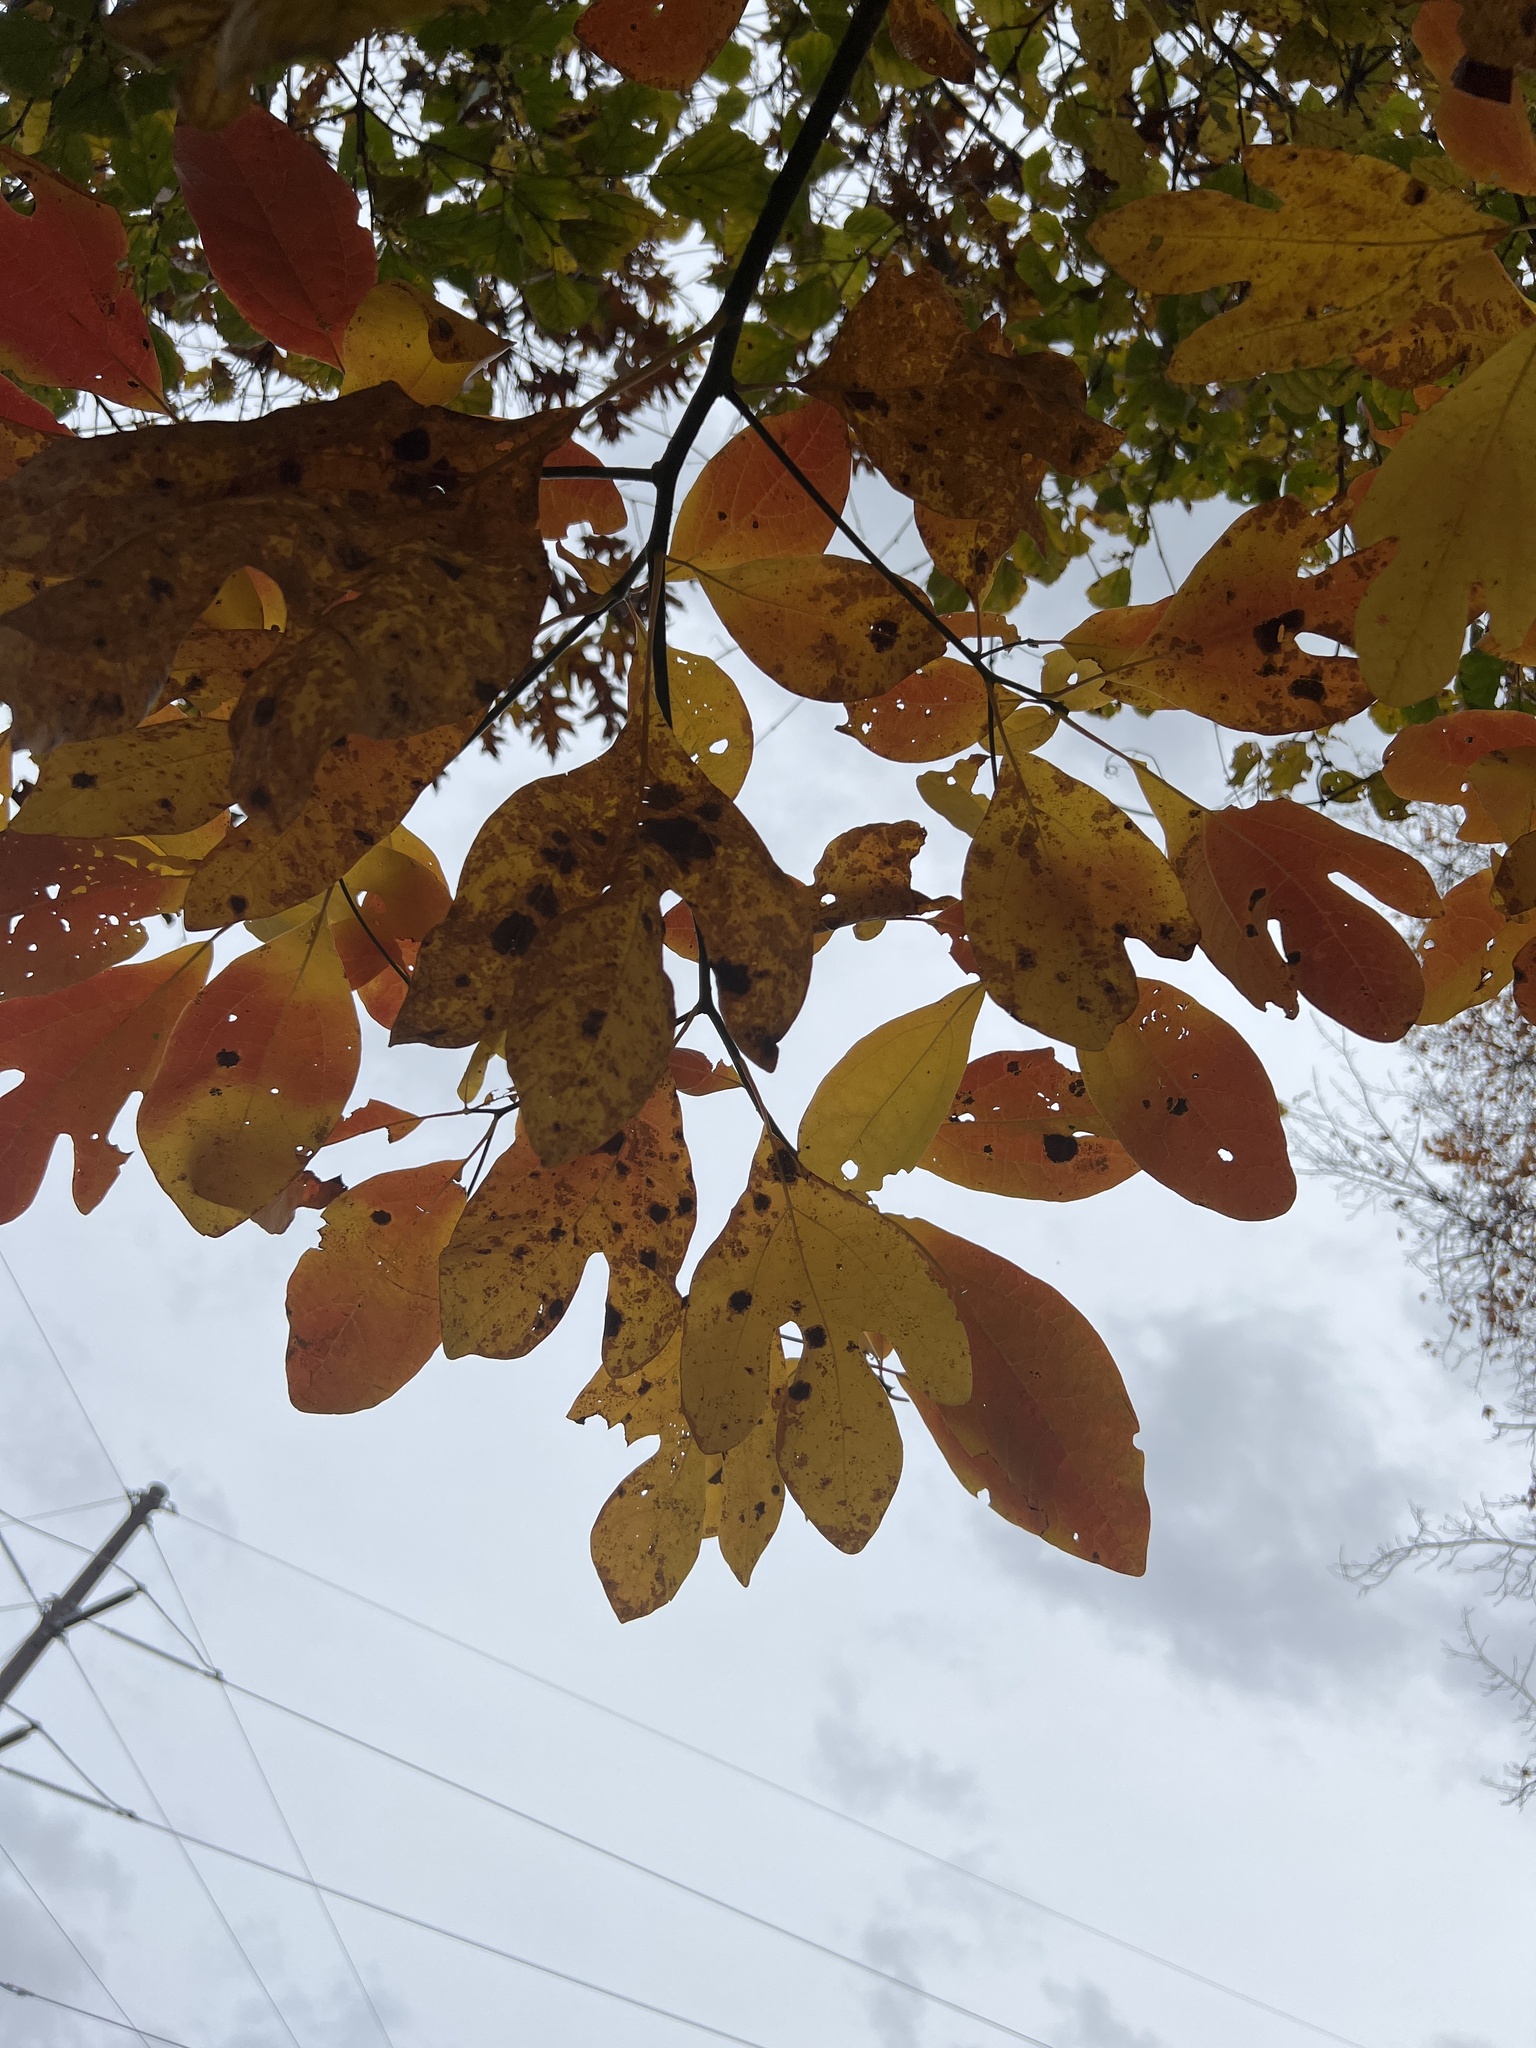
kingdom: Plantae
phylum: Tracheophyta
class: Magnoliopsida
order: Laurales
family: Lauraceae
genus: Sassafras
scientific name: Sassafras albidum
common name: Sassafras
